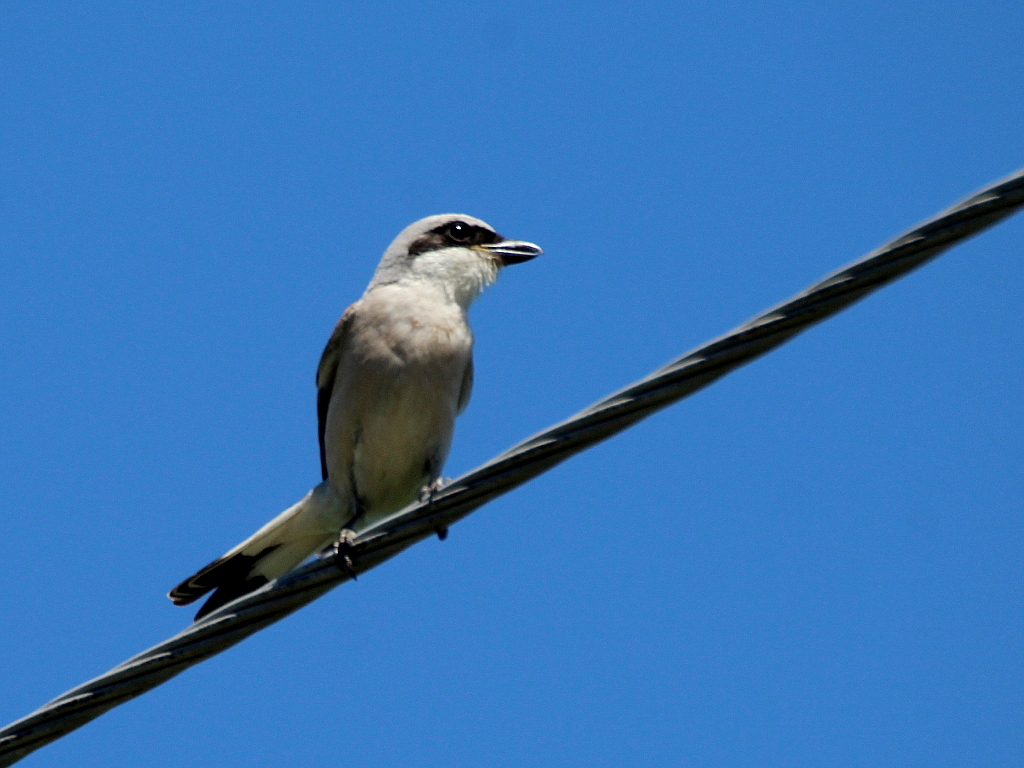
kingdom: Animalia
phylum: Chordata
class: Aves
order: Passeriformes
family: Laniidae
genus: Lanius
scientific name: Lanius collurio
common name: Red-backed shrike
